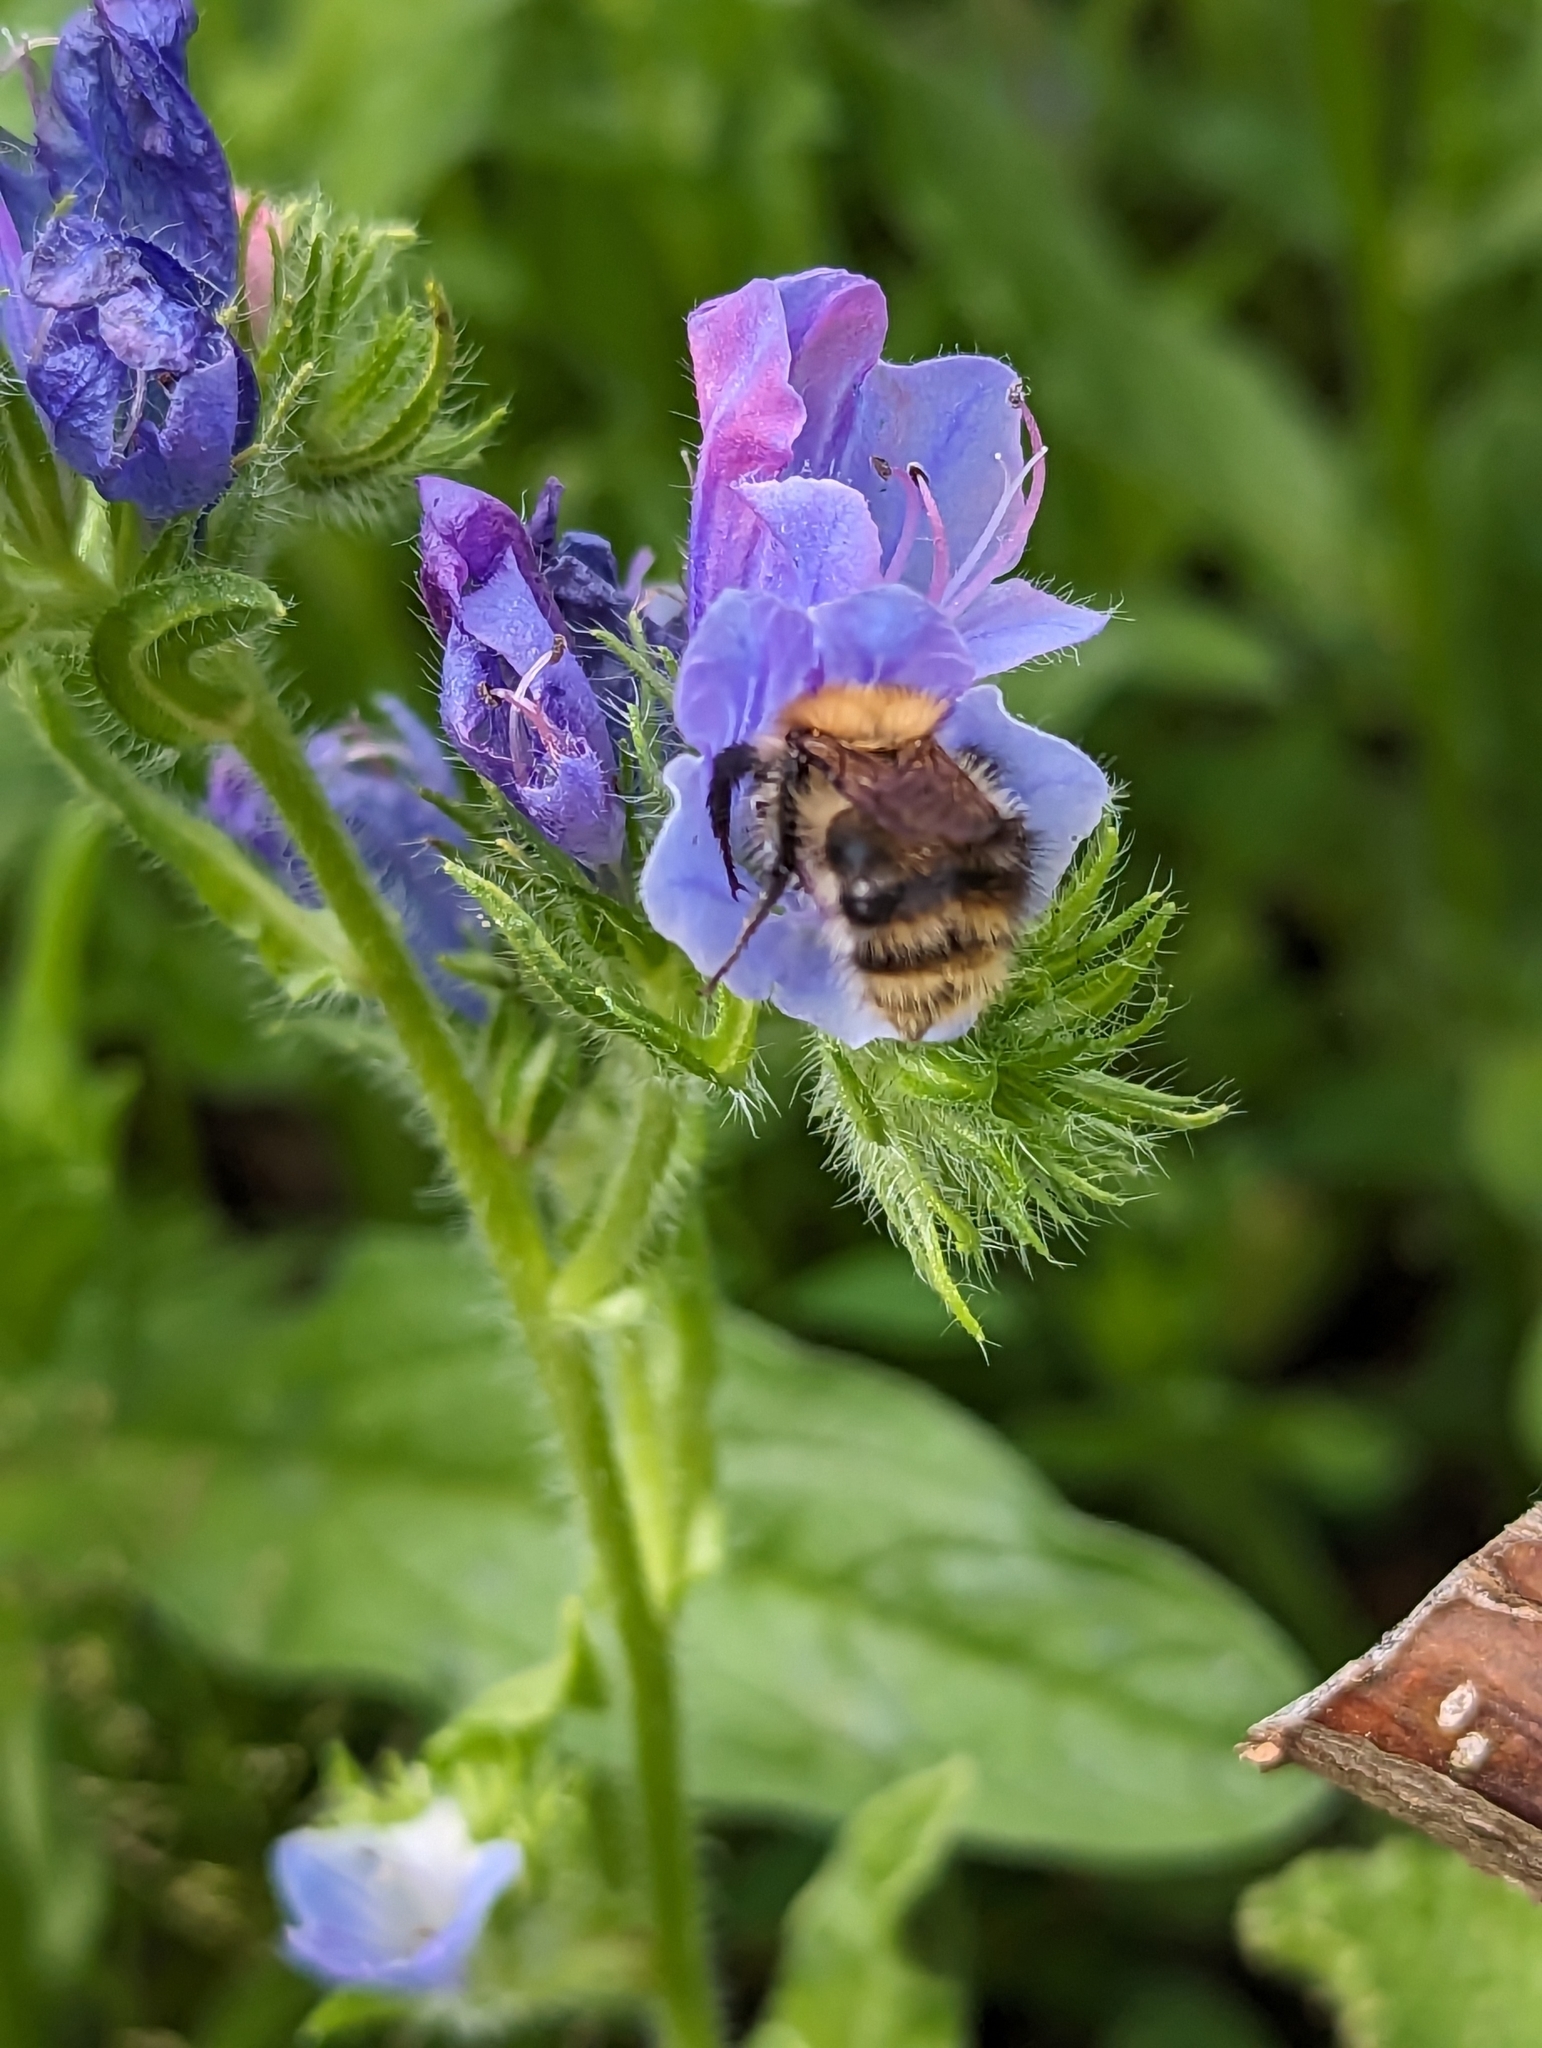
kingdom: Animalia
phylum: Arthropoda
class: Insecta
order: Hymenoptera
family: Apidae
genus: Bombus
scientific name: Bombus pascuorum
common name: Common carder bee
